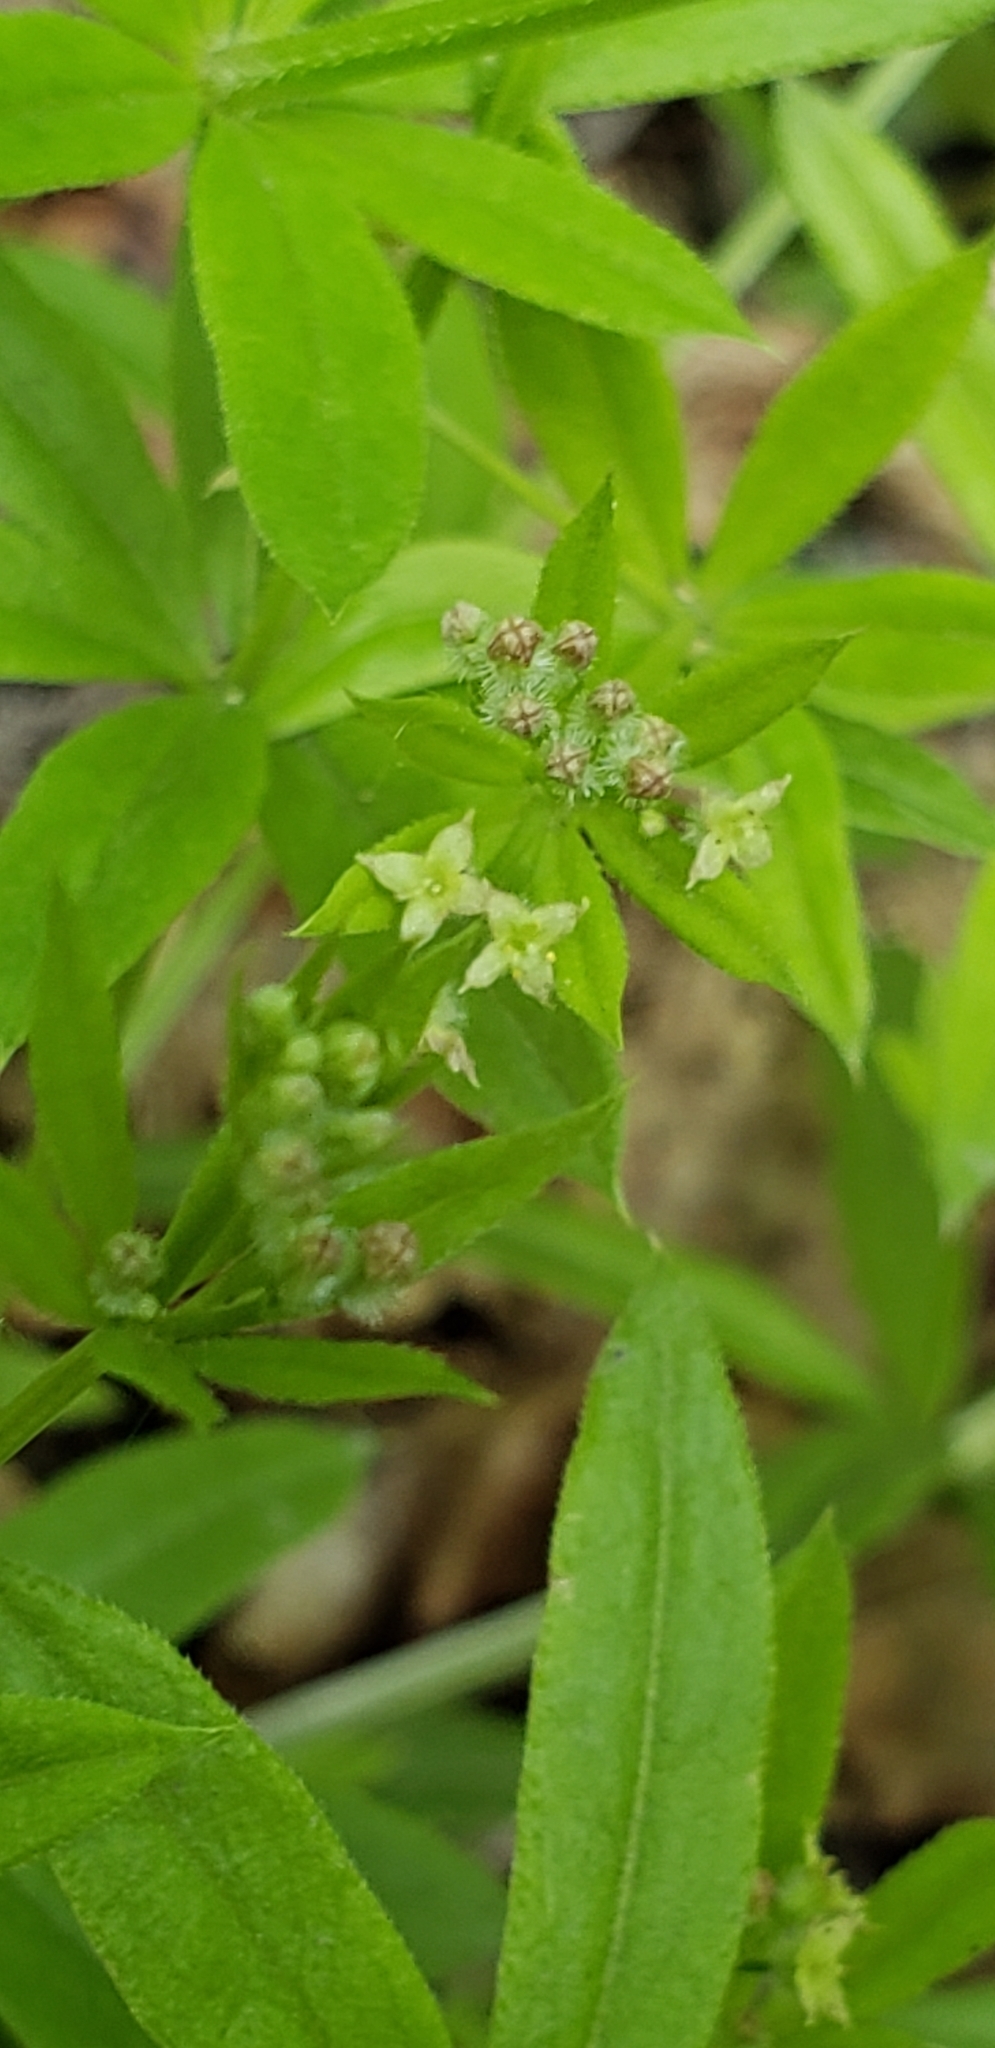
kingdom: Plantae
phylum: Tracheophyta
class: Magnoliopsida
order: Gentianales
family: Rubiaceae
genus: Galium
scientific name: Galium triflorum
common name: Fragrant bedstraw
